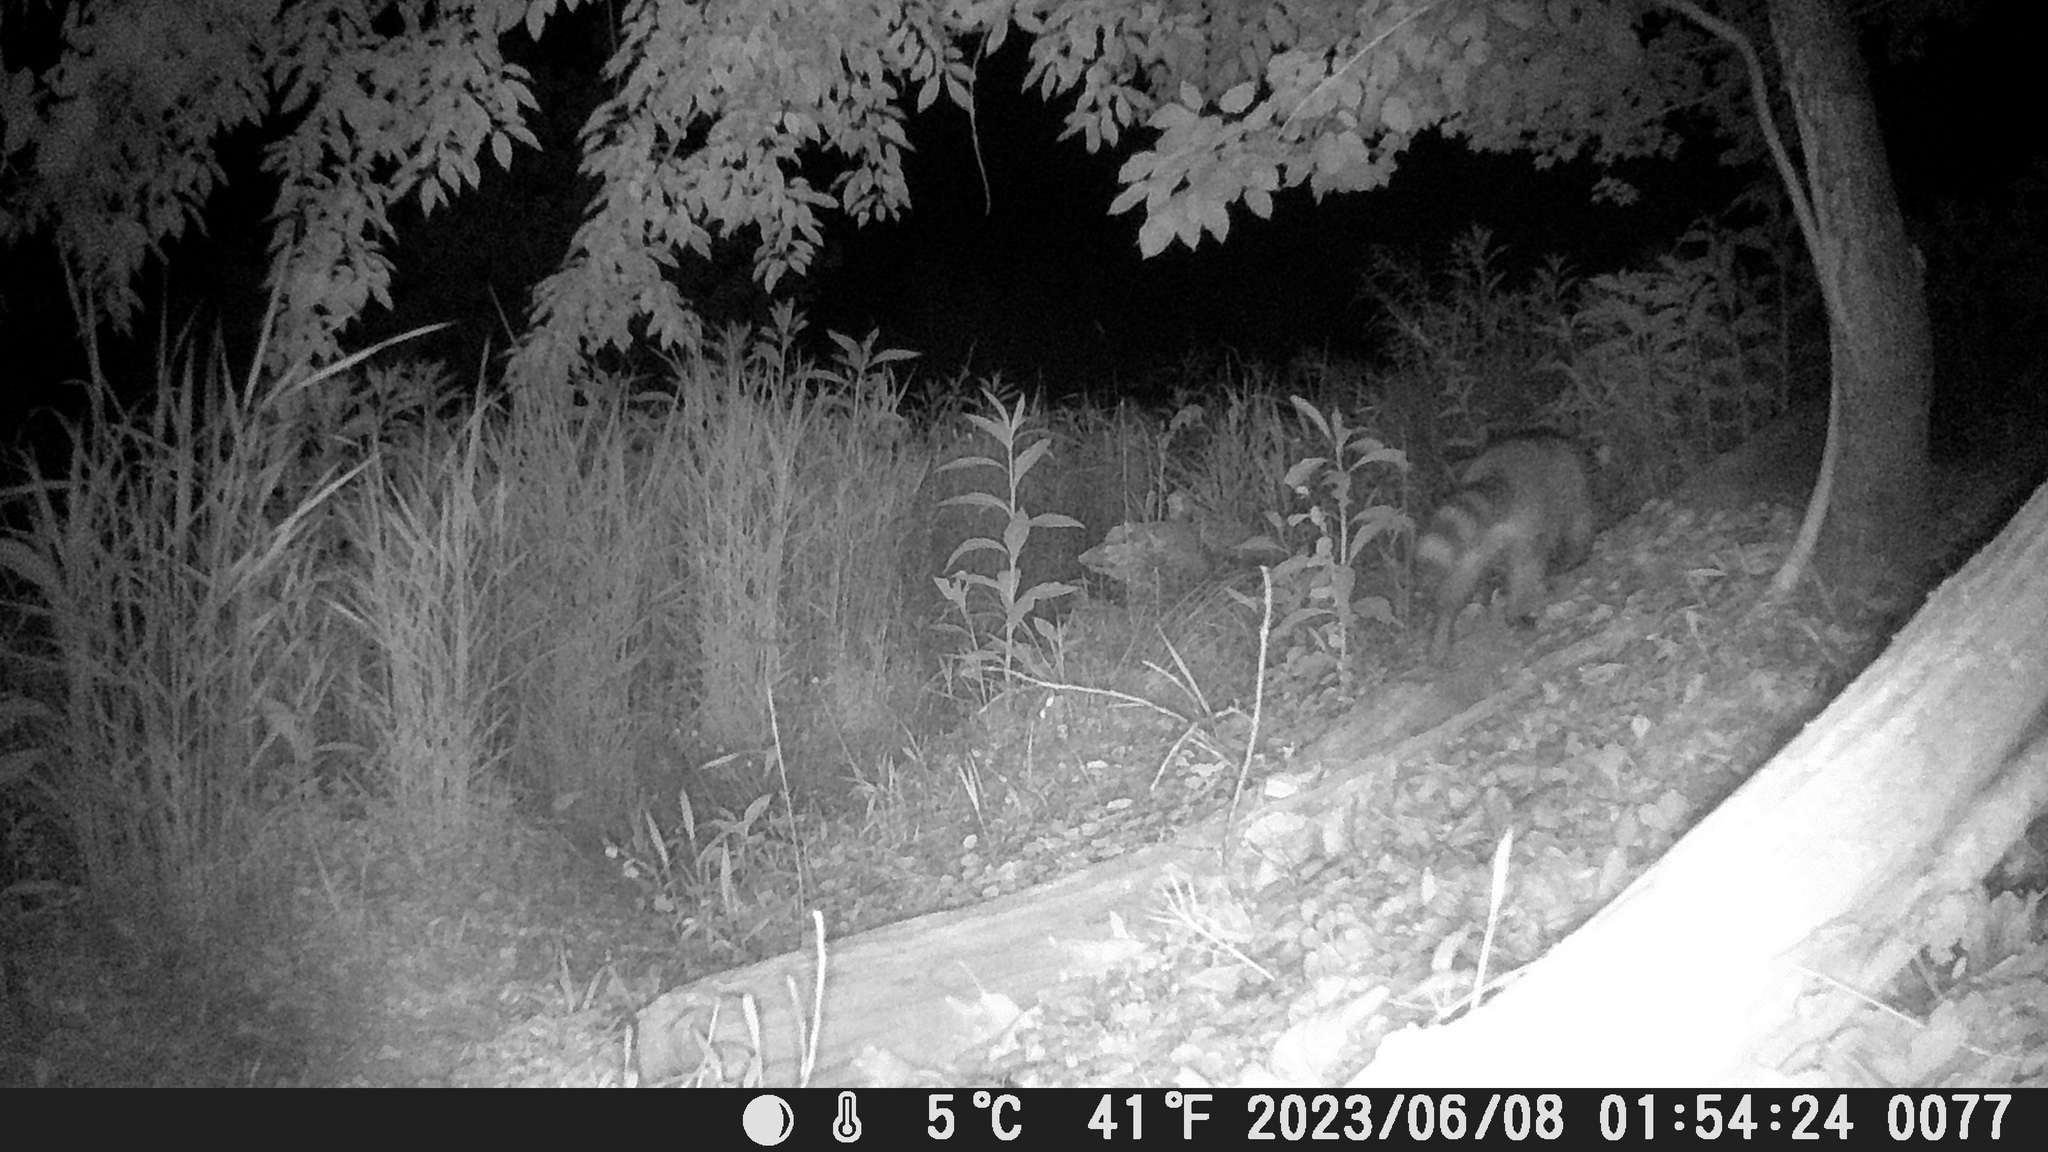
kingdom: Animalia
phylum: Chordata
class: Mammalia
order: Carnivora
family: Procyonidae
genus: Procyon
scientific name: Procyon lotor
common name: Raccoon
